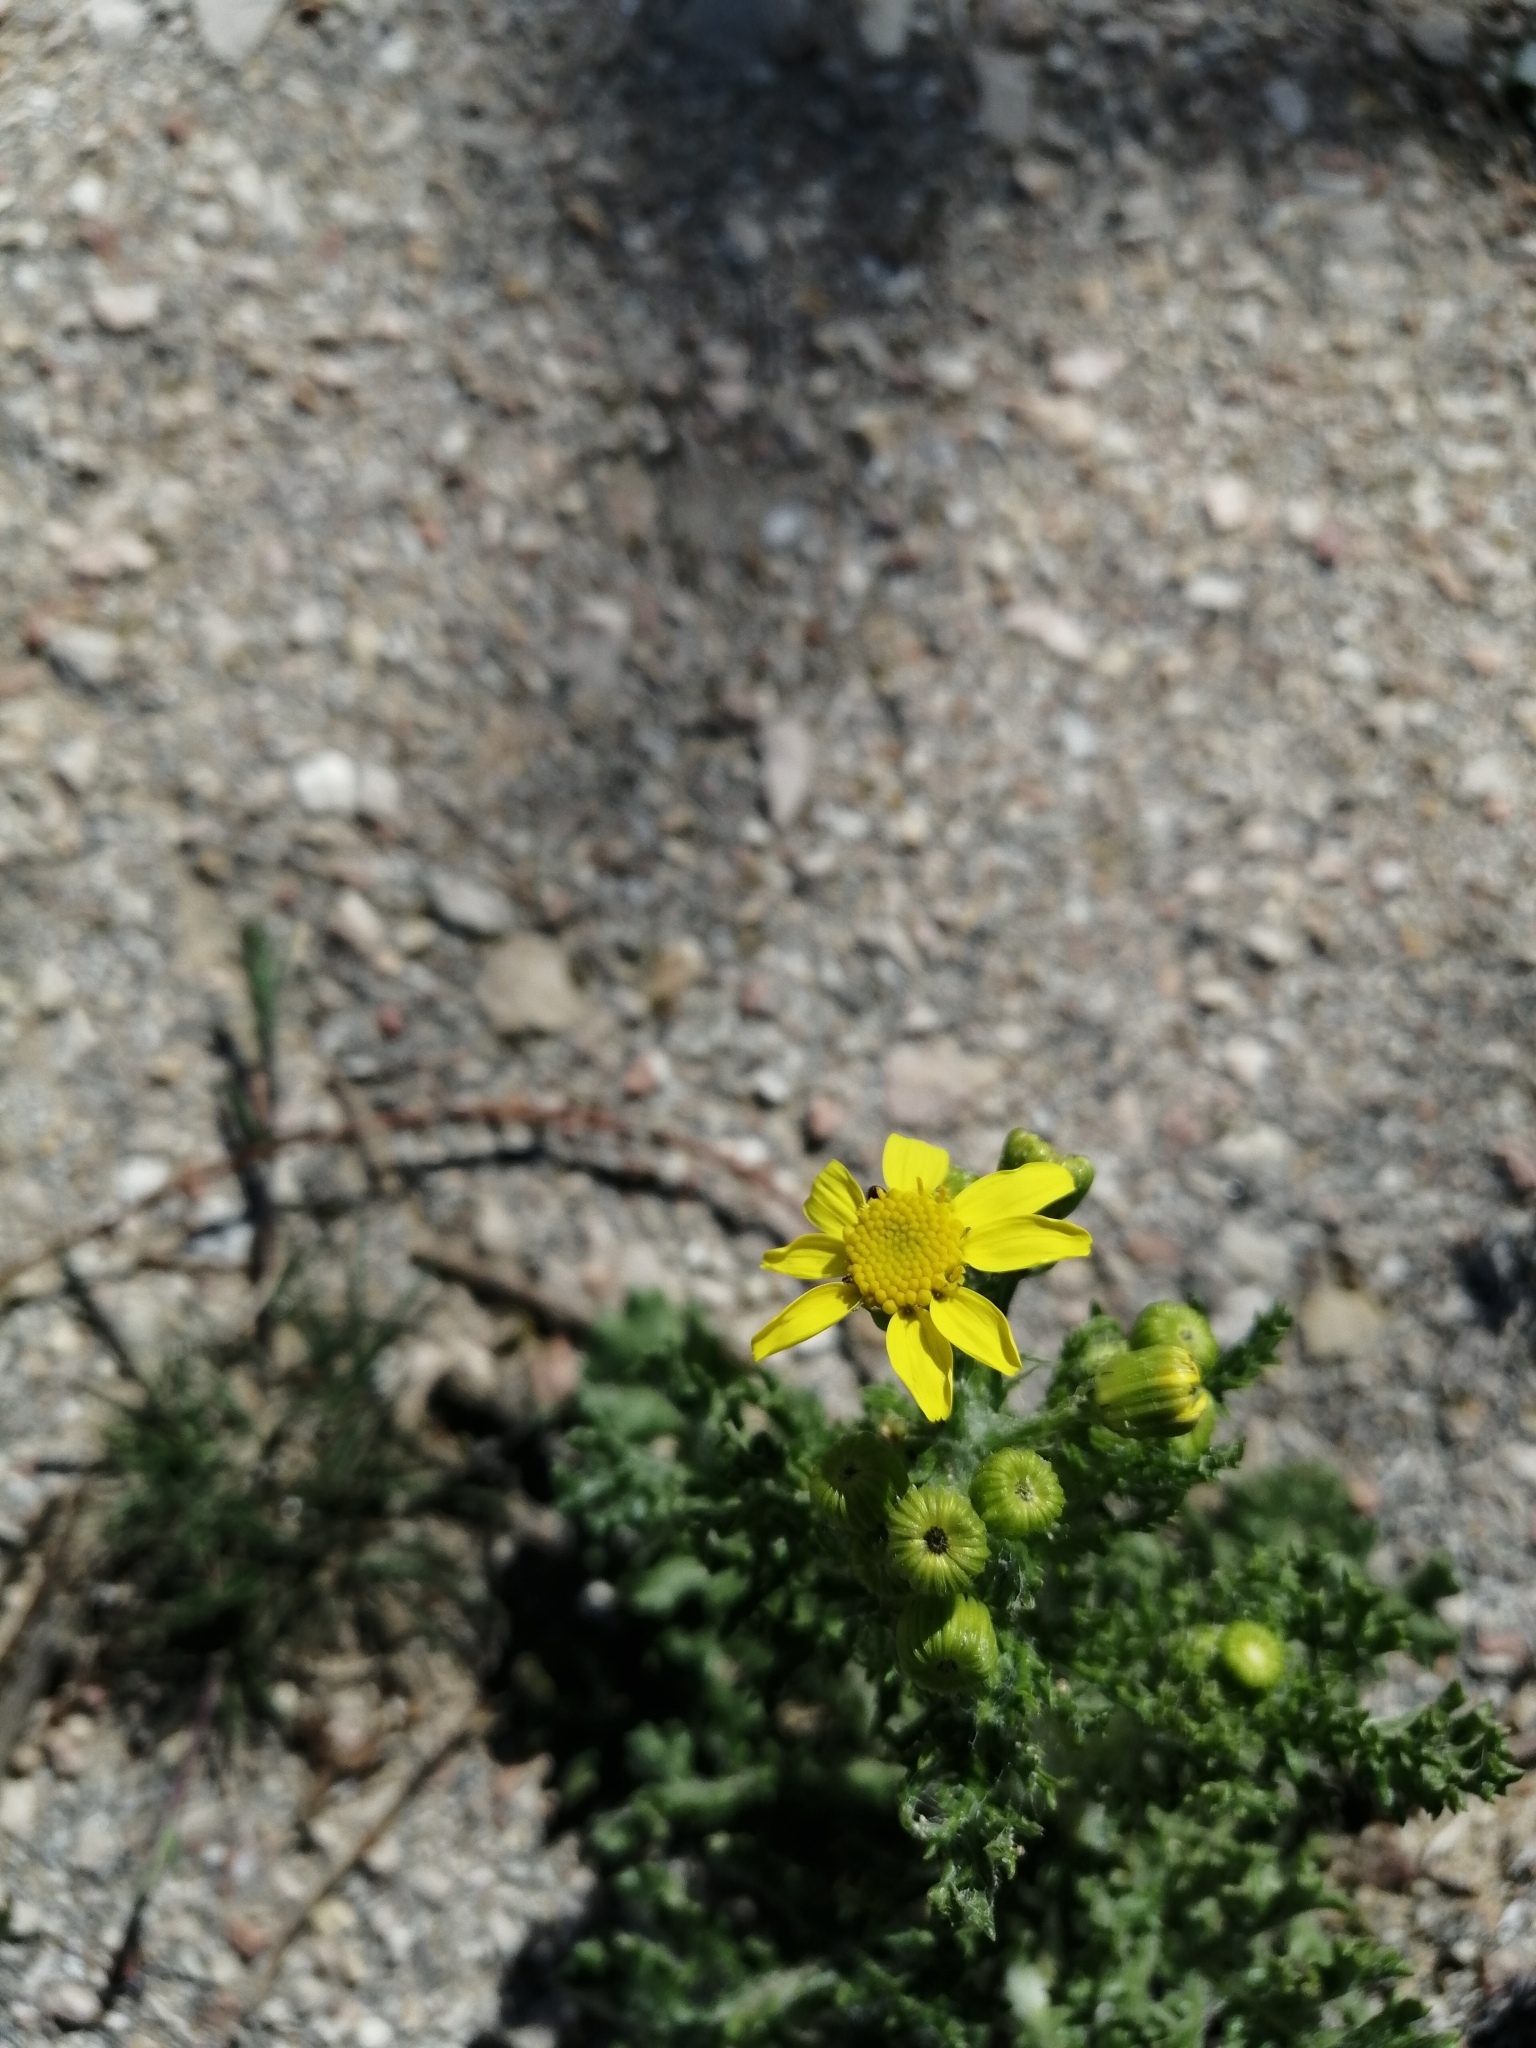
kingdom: Plantae
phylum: Tracheophyta
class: Magnoliopsida
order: Asterales
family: Asteraceae
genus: Senecio
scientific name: Senecio vernalis
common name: Eastern groundsel
